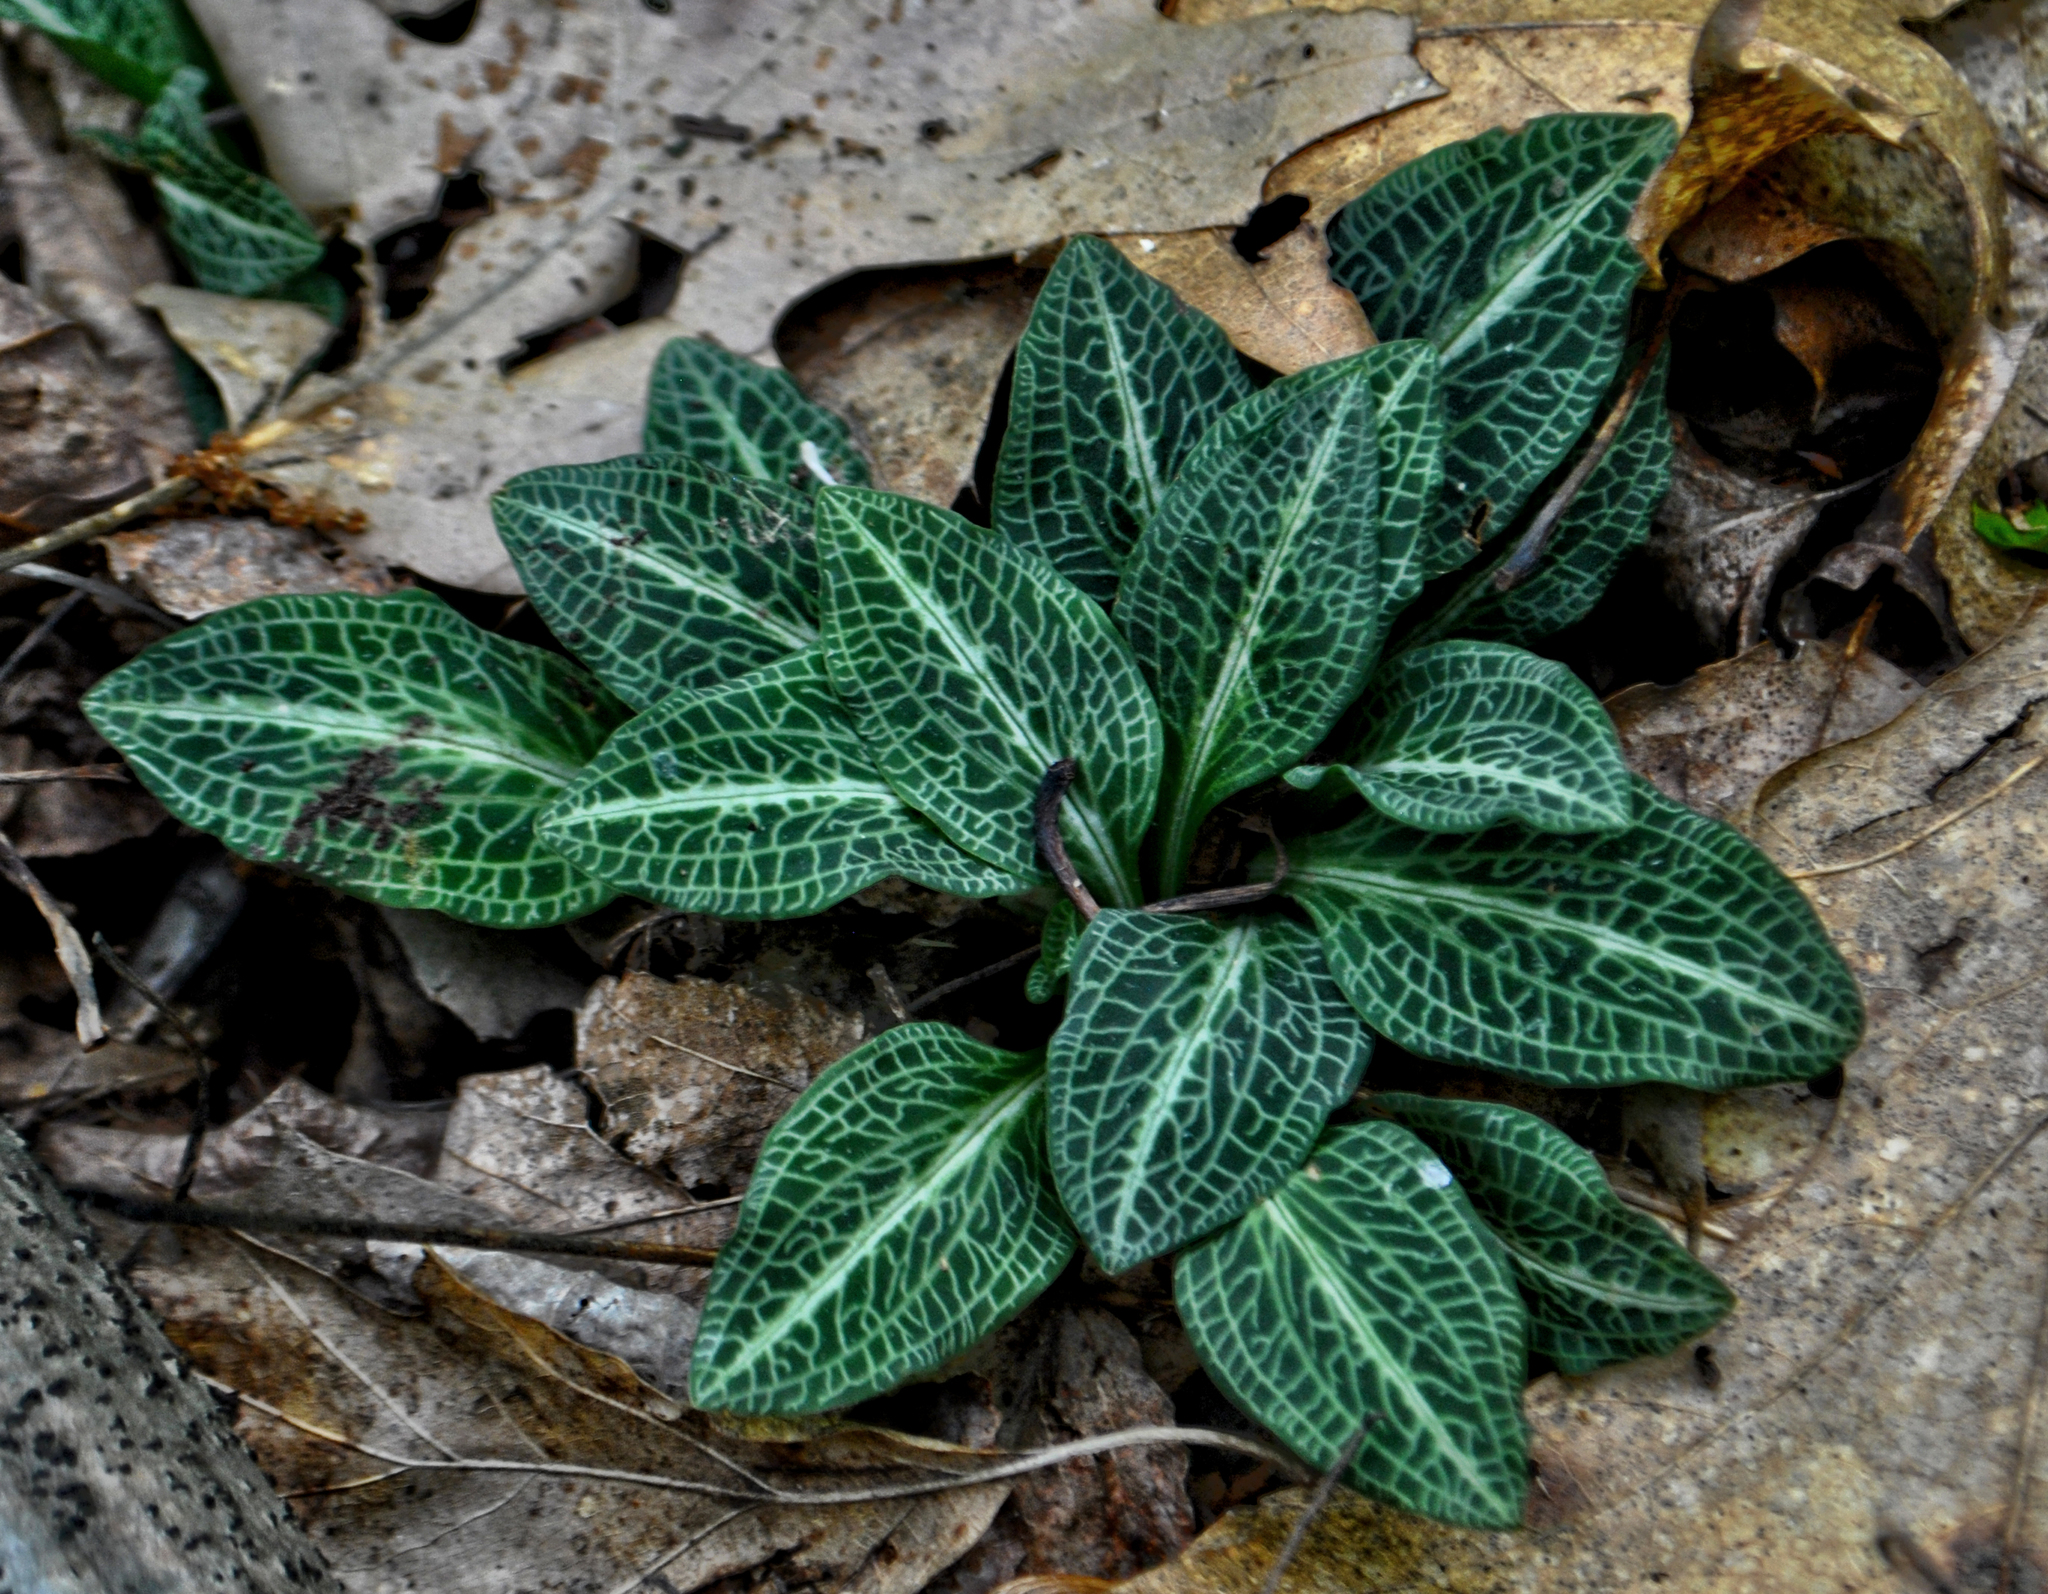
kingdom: Plantae
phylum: Tracheophyta
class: Liliopsida
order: Asparagales
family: Orchidaceae
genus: Goodyera
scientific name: Goodyera pubescens
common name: Downy rattlesnake-plantain
